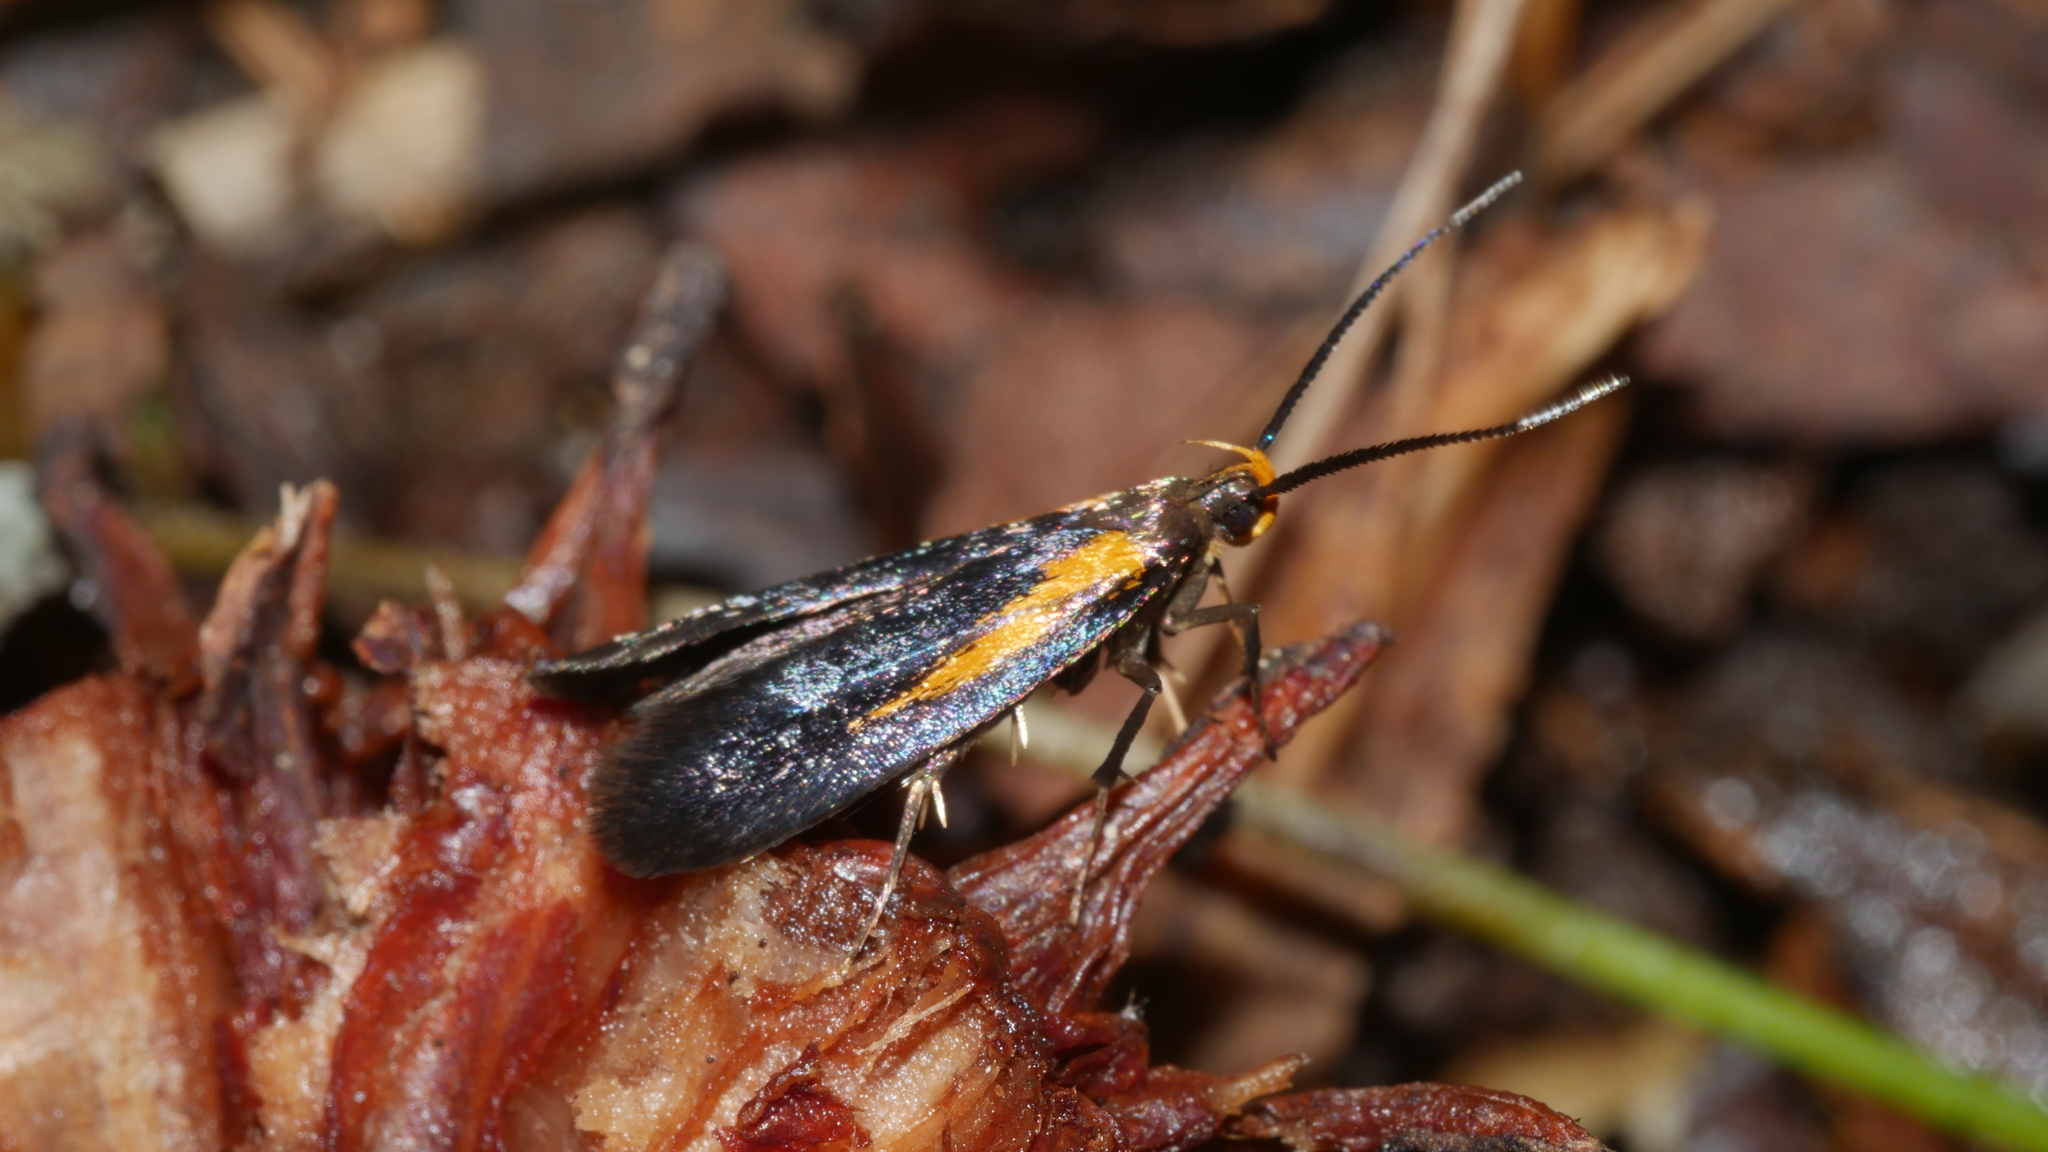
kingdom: Animalia
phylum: Arthropoda
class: Insecta
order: Lepidoptera
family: Oecophoridae
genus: Mathildana
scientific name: Mathildana newmanella
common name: Newman's mathildana moth
